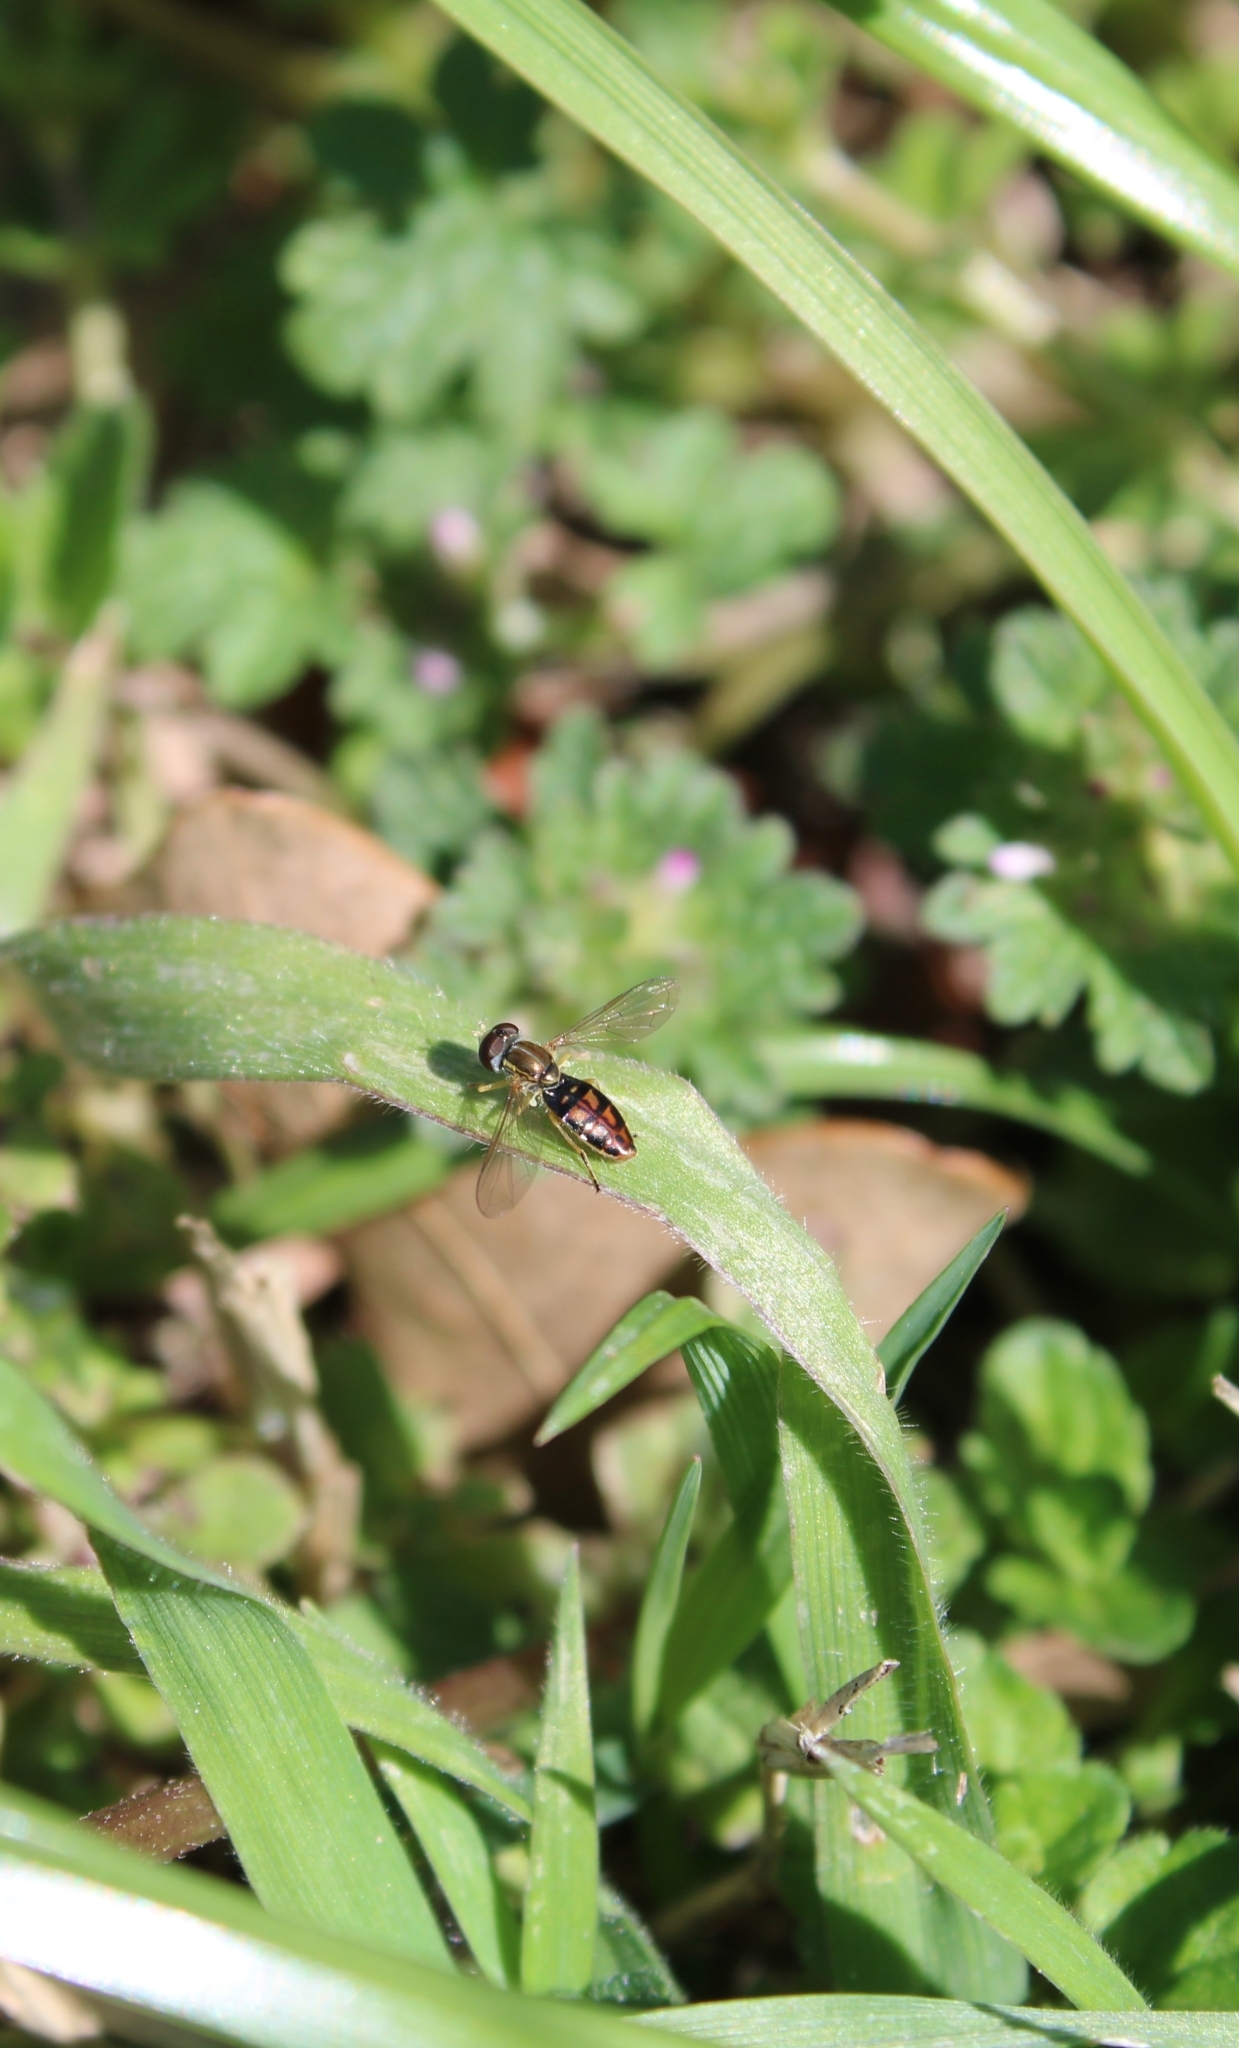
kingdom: Animalia
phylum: Arthropoda
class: Insecta
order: Diptera
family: Syrphidae
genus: Toxomerus
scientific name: Toxomerus marginatus
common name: Syrphid fly
